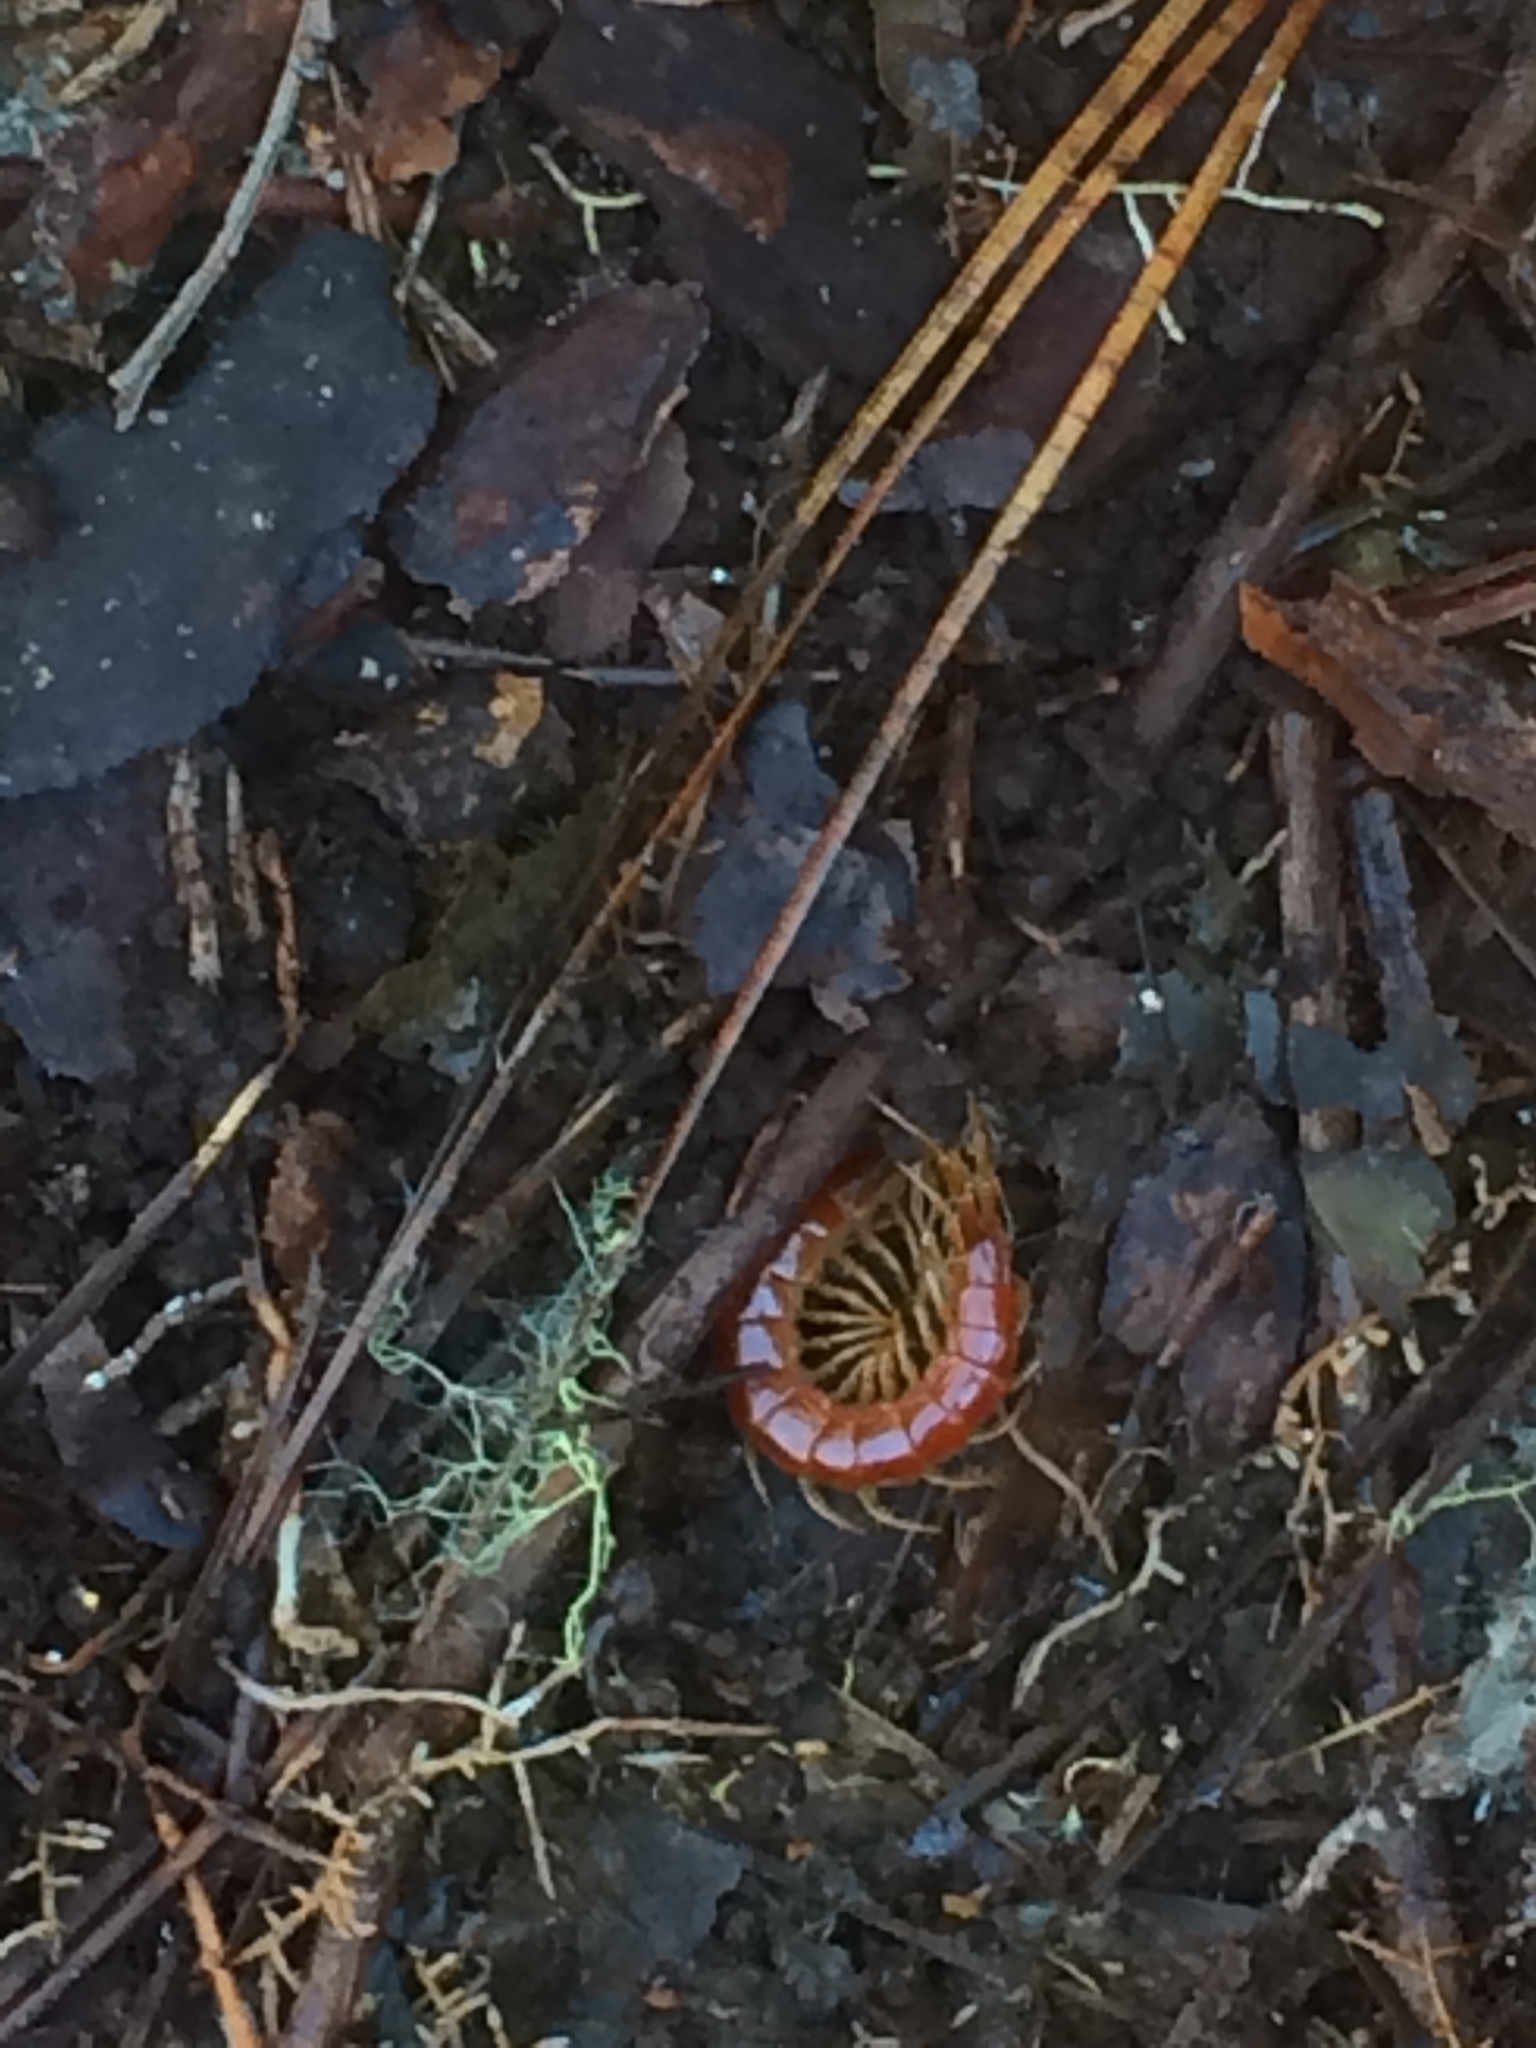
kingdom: Animalia
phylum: Arthropoda
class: Chilopoda
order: Scolopendromorpha
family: Scolopocryptopidae
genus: Scolopocryptops
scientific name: Scolopocryptops sexspinosus
